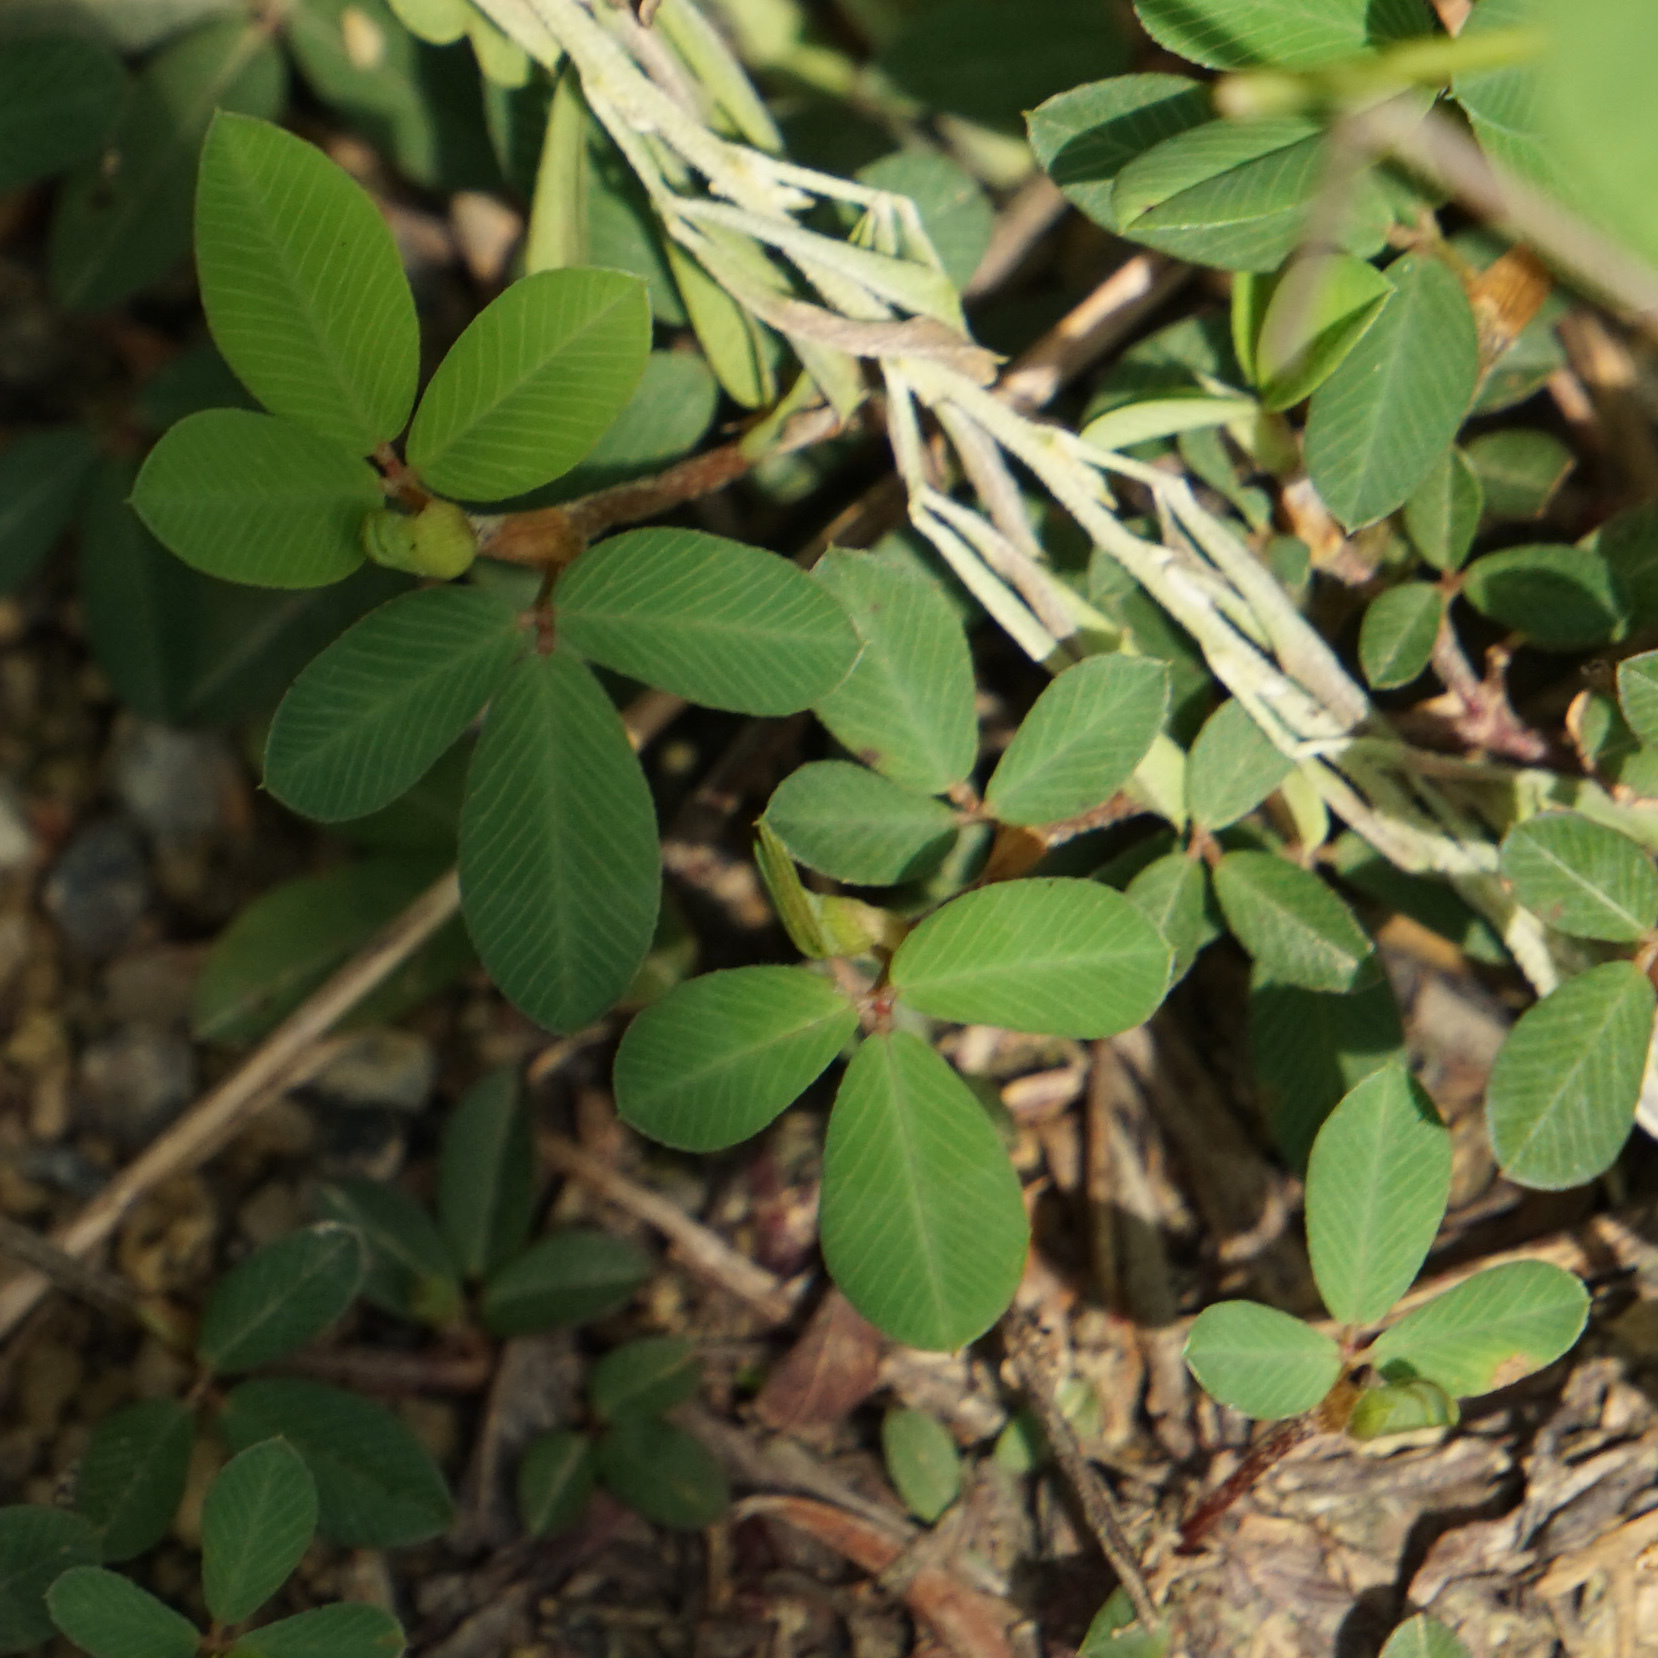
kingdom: Plantae
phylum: Tracheophyta
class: Magnoliopsida
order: Fabales
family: Fabaceae
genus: Kummerowia
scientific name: Kummerowia striata
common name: Japanese clover
